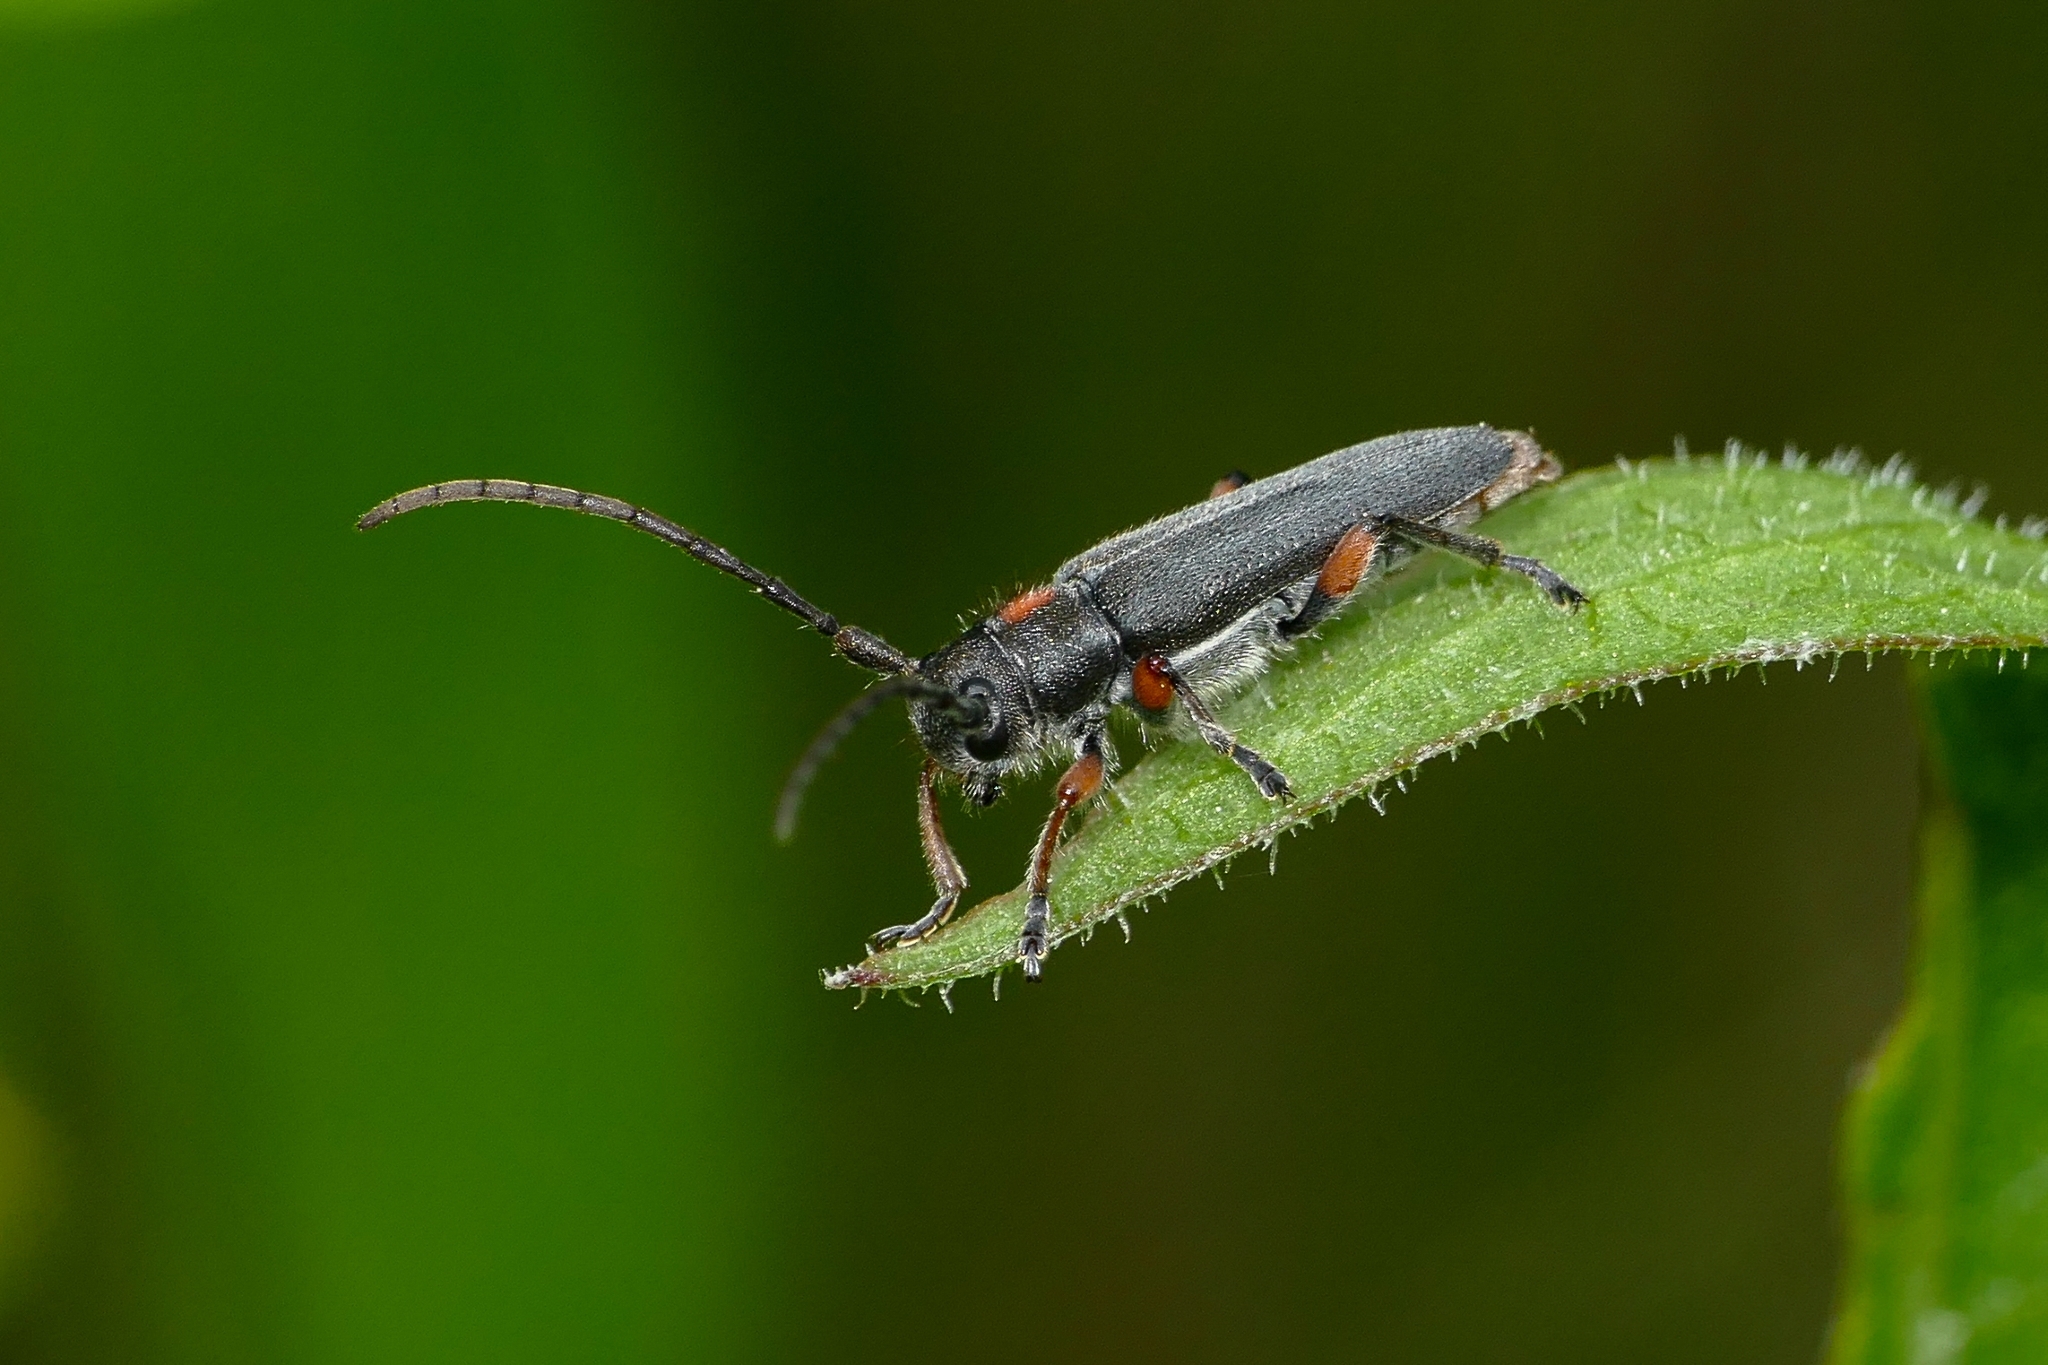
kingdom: Animalia
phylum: Arthropoda
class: Insecta
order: Coleoptera
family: Cerambycidae
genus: Phytoecia
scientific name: Phytoecia pustulata
